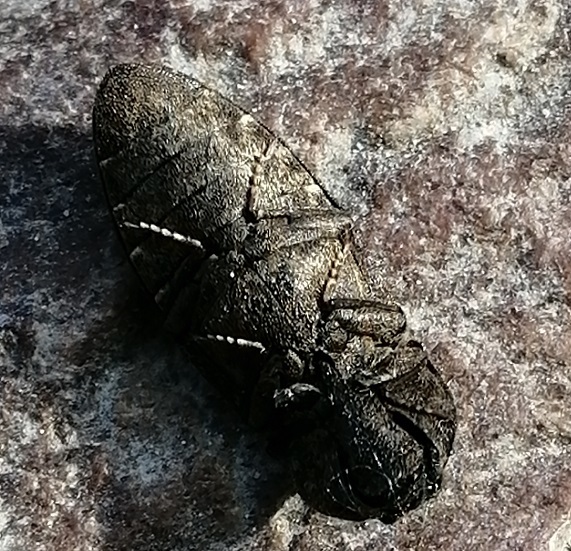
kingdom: Animalia
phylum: Arthropoda
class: Insecta
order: Coleoptera
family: Elateridae
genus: Agrypnus
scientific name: Agrypnus murinus
